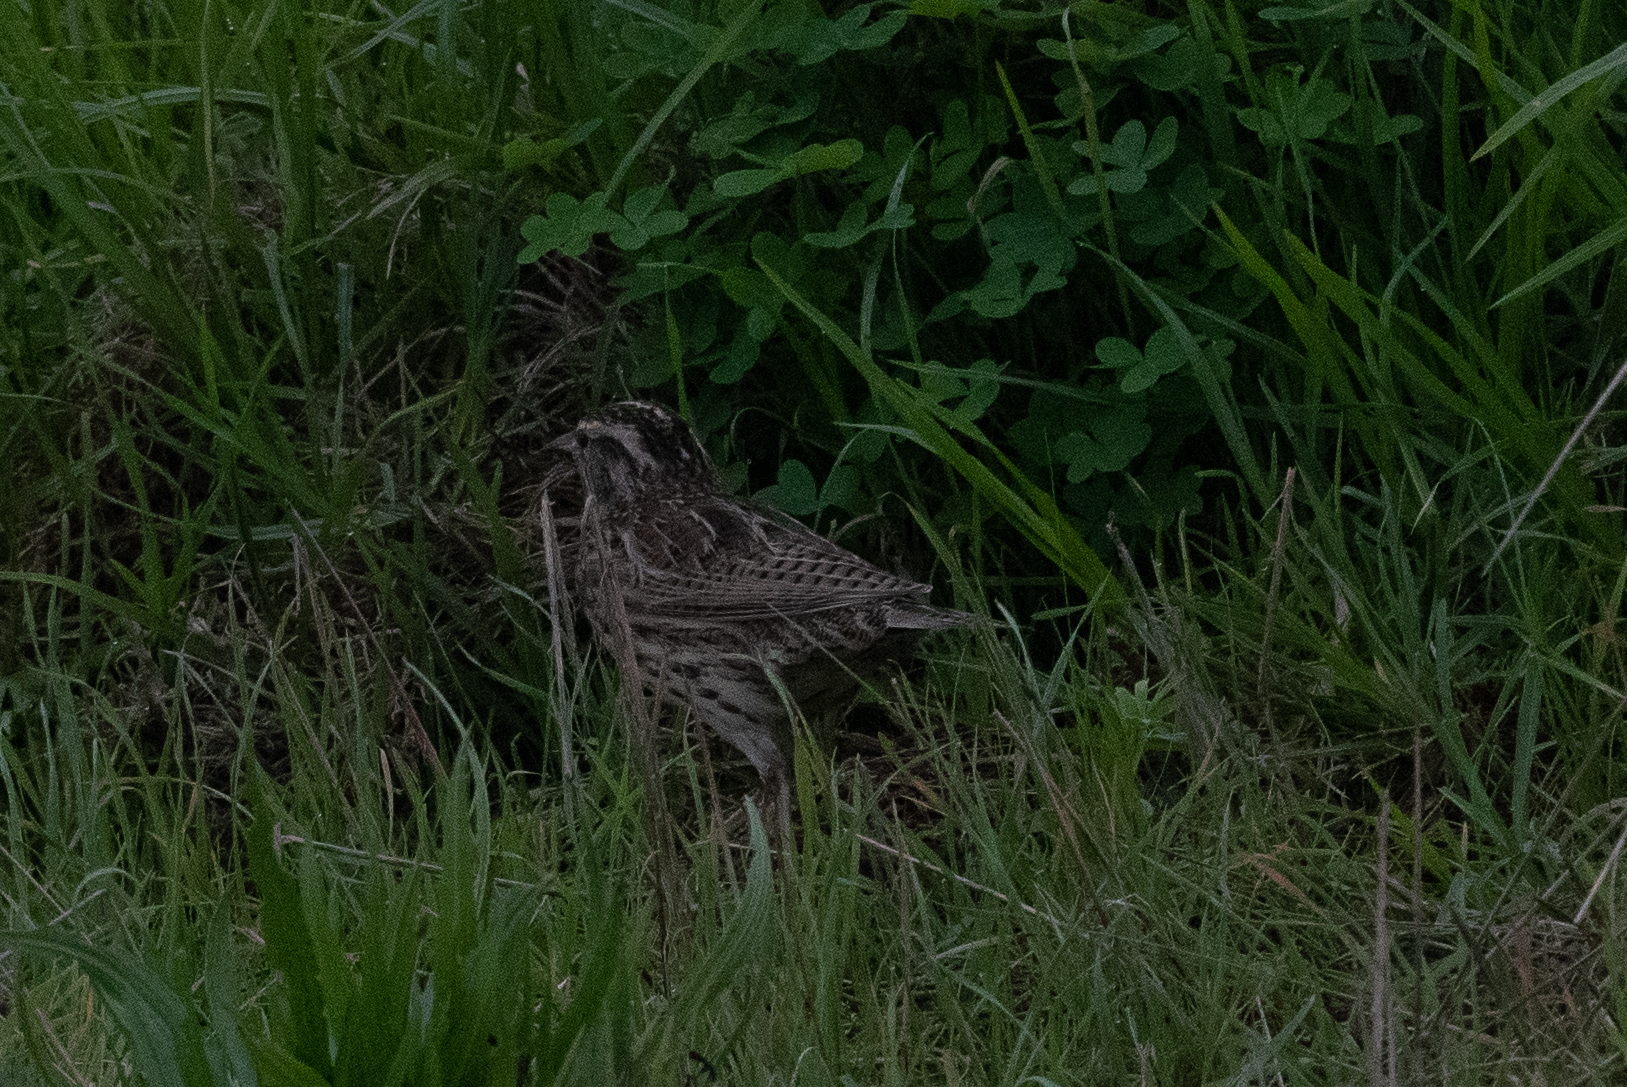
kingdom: Animalia
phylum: Chordata
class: Aves
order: Passeriformes
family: Icteridae
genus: Sturnella
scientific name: Sturnella neglecta
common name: Western meadowlark
